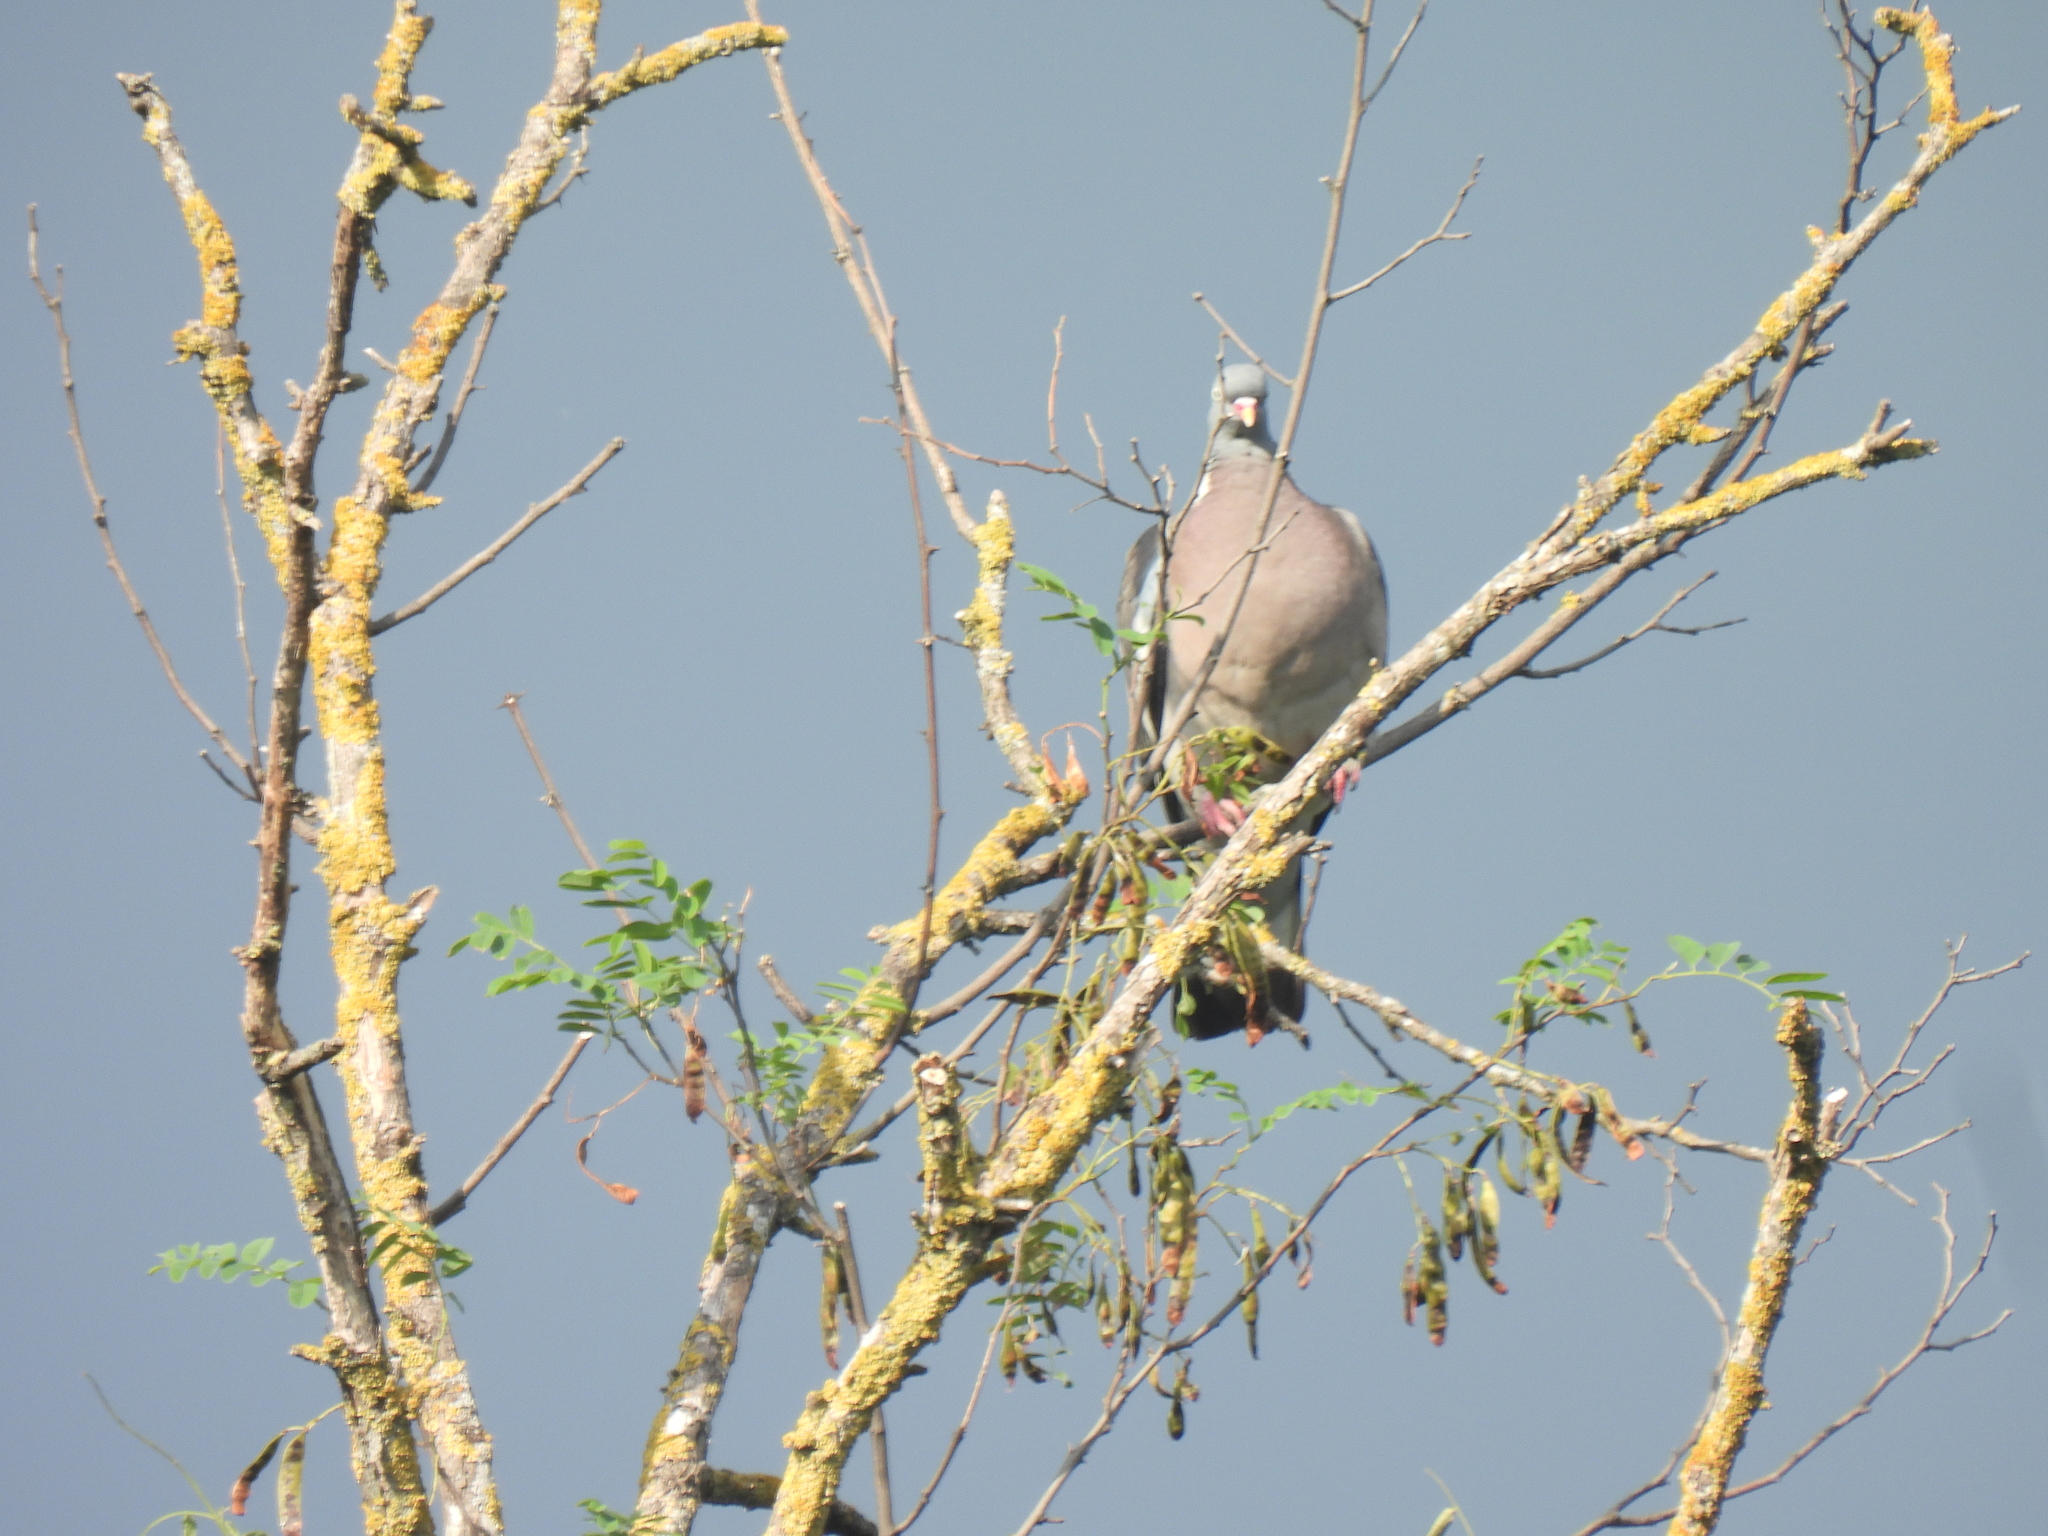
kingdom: Animalia
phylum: Chordata
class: Aves
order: Columbiformes
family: Columbidae
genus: Columba
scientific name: Columba palumbus
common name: Common wood pigeon
